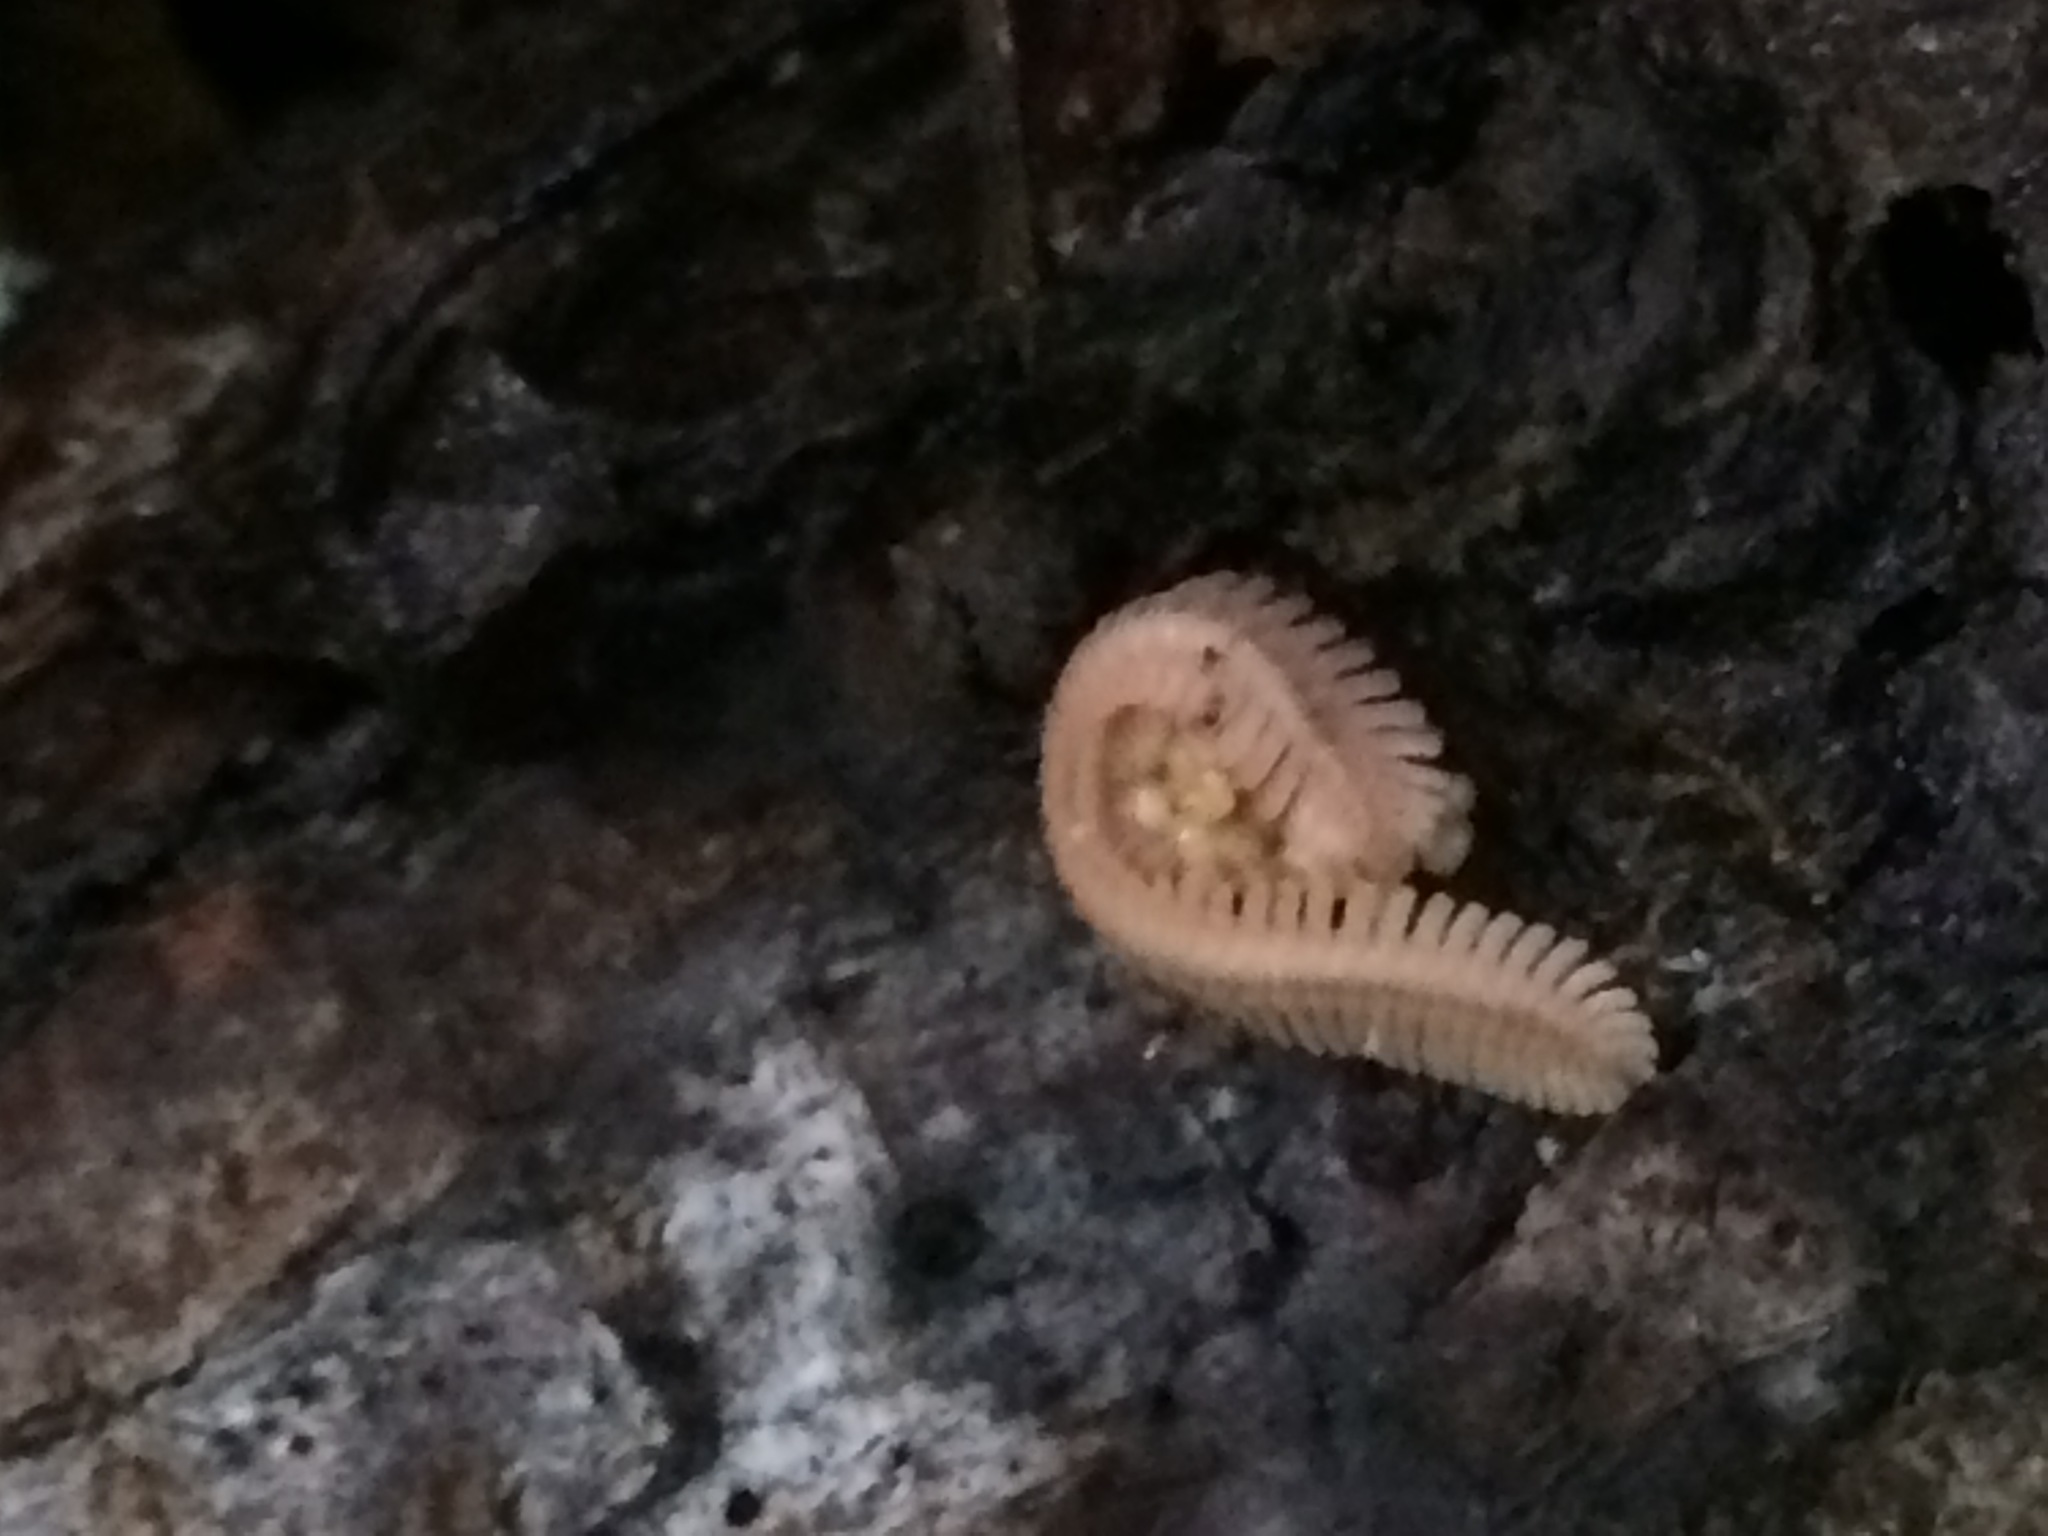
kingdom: Animalia
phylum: Arthropoda
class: Diplopoda
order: Platydesmida
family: Andrognathidae
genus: Brachycybe
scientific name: Brachycybe lecontii
